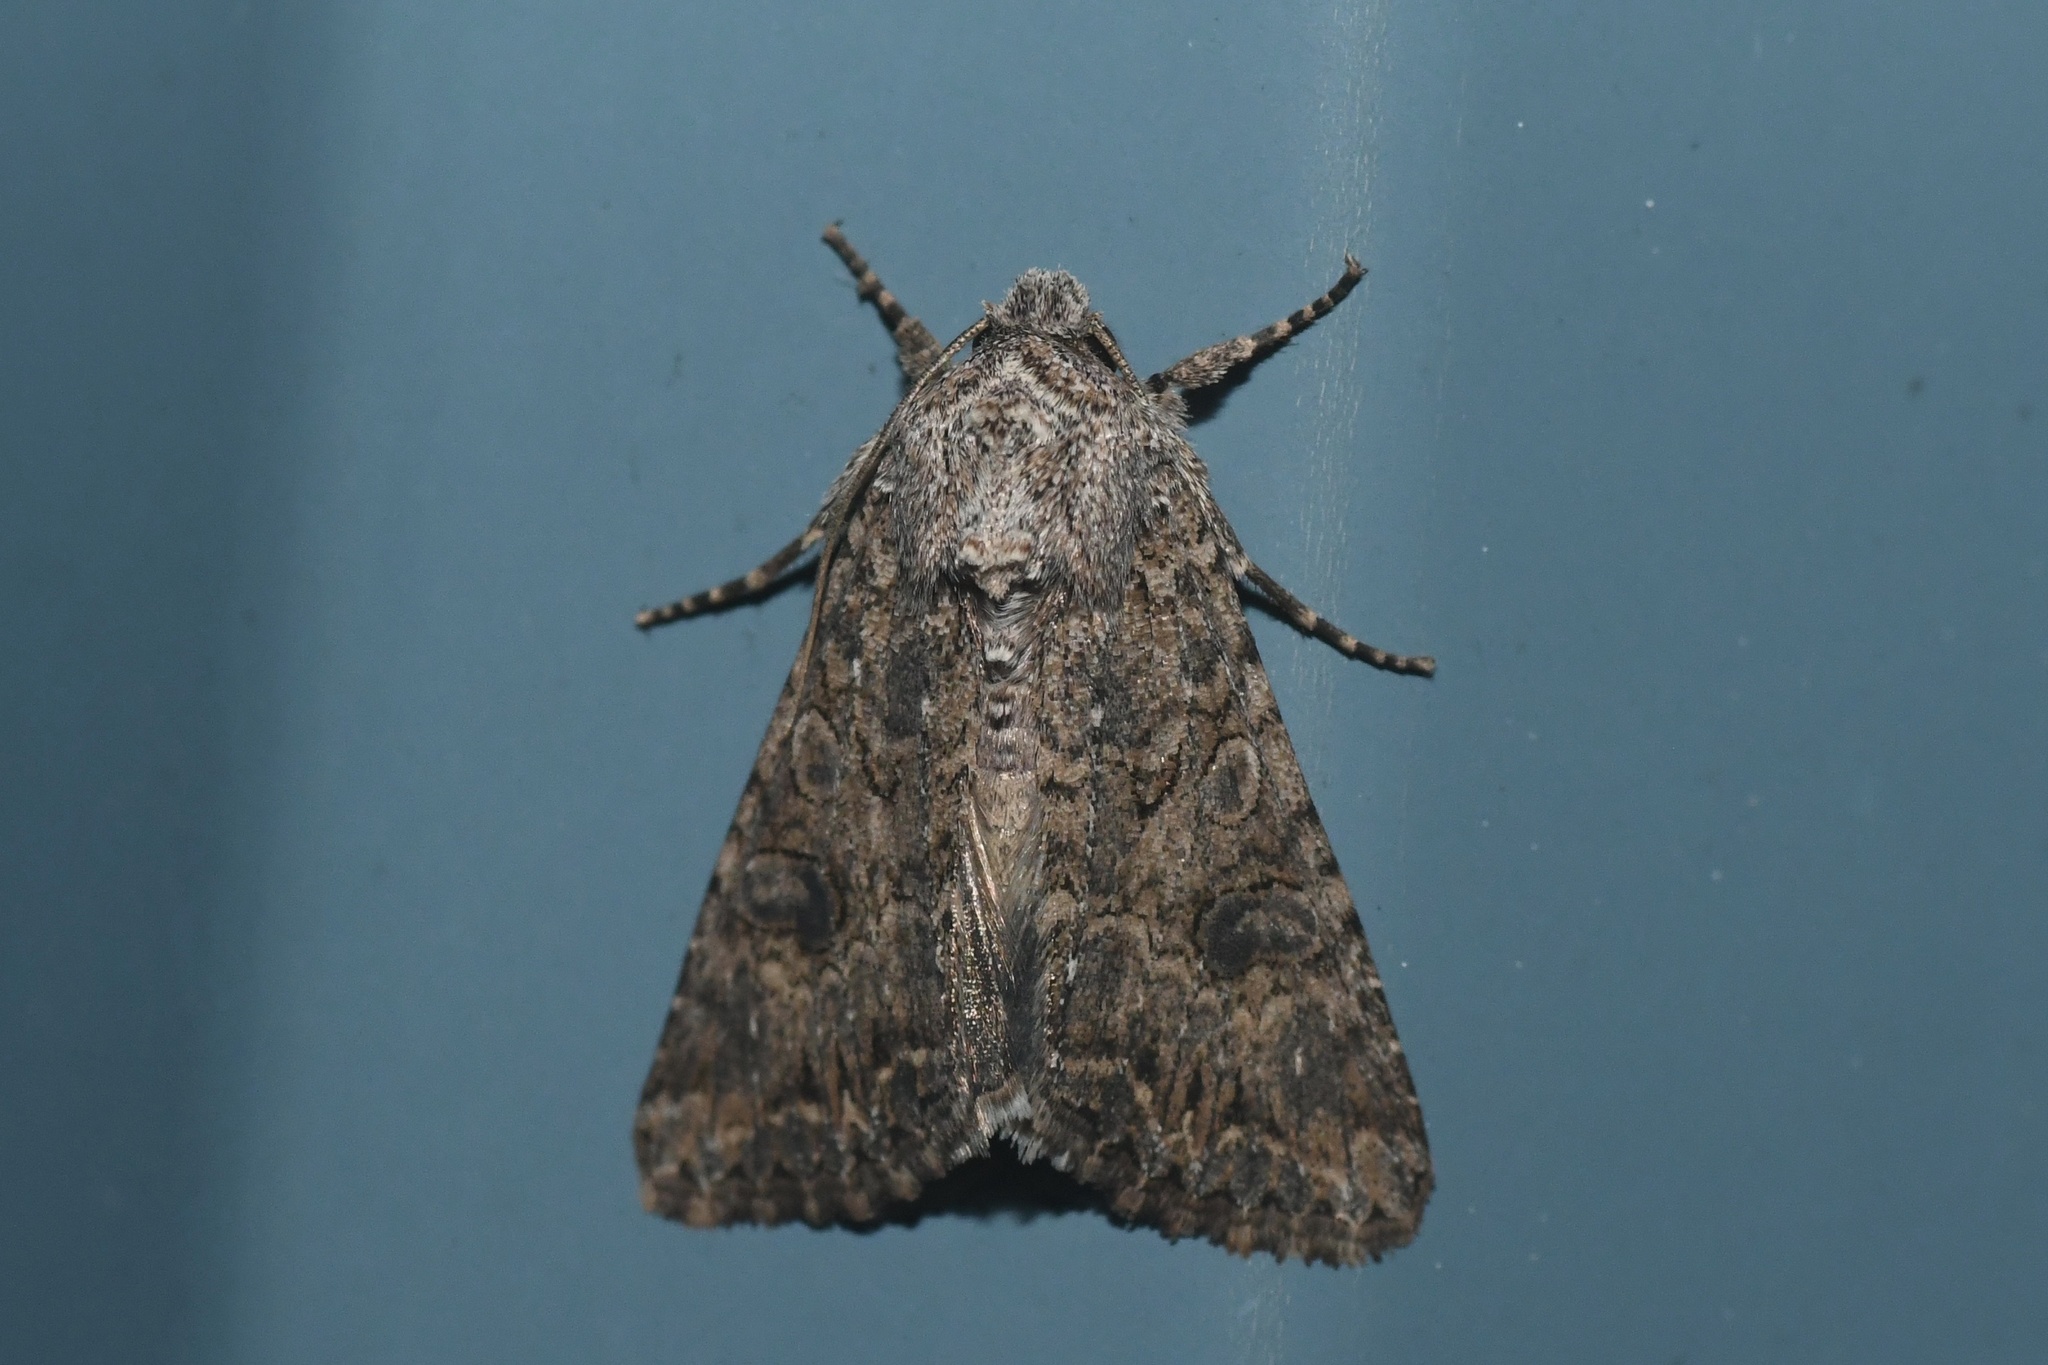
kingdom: Animalia
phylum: Arthropoda
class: Insecta
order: Lepidoptera
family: Noctuidae
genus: Anarta
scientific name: Anarta trifolii
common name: Clover cutworm moth
